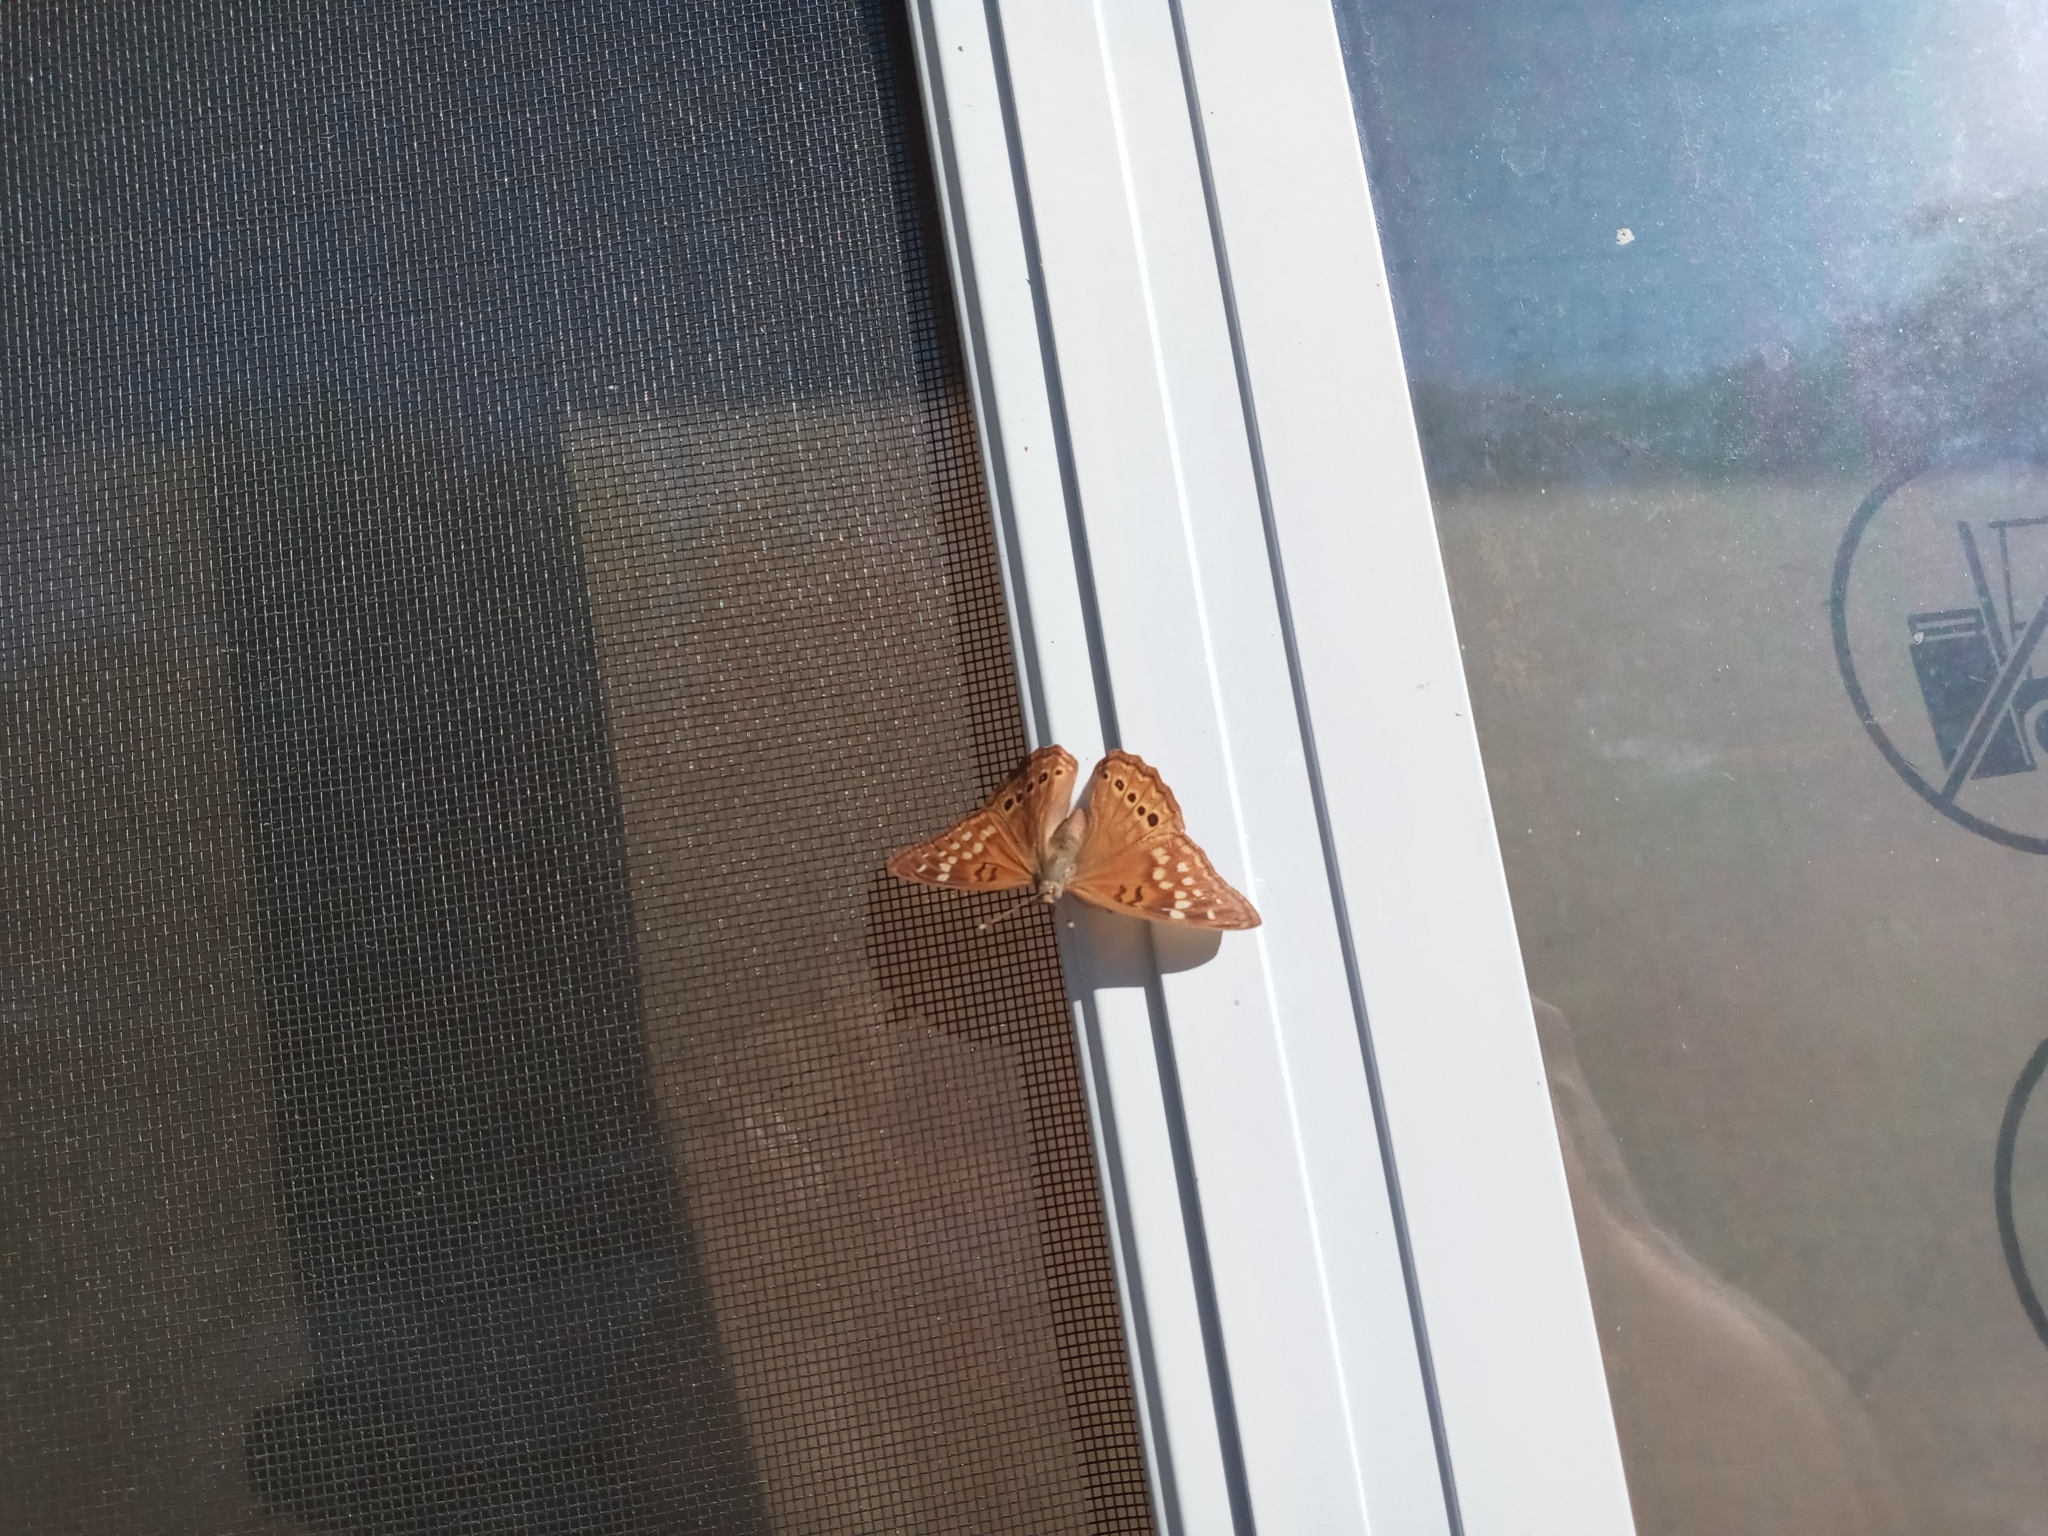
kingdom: Animalia
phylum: Arthropoda
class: Insecta
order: Lepidoptera
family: Nymphalidae
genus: Asterocampa
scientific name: Asterocampa clyton
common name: Tawny emperor
